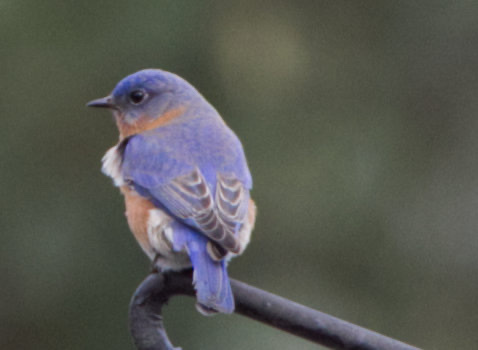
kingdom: Animalia
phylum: Chordata
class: Aves
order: Passeriformes
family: Turdidae
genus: Sialia
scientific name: Sialia sialis
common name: Eastern bluebird
